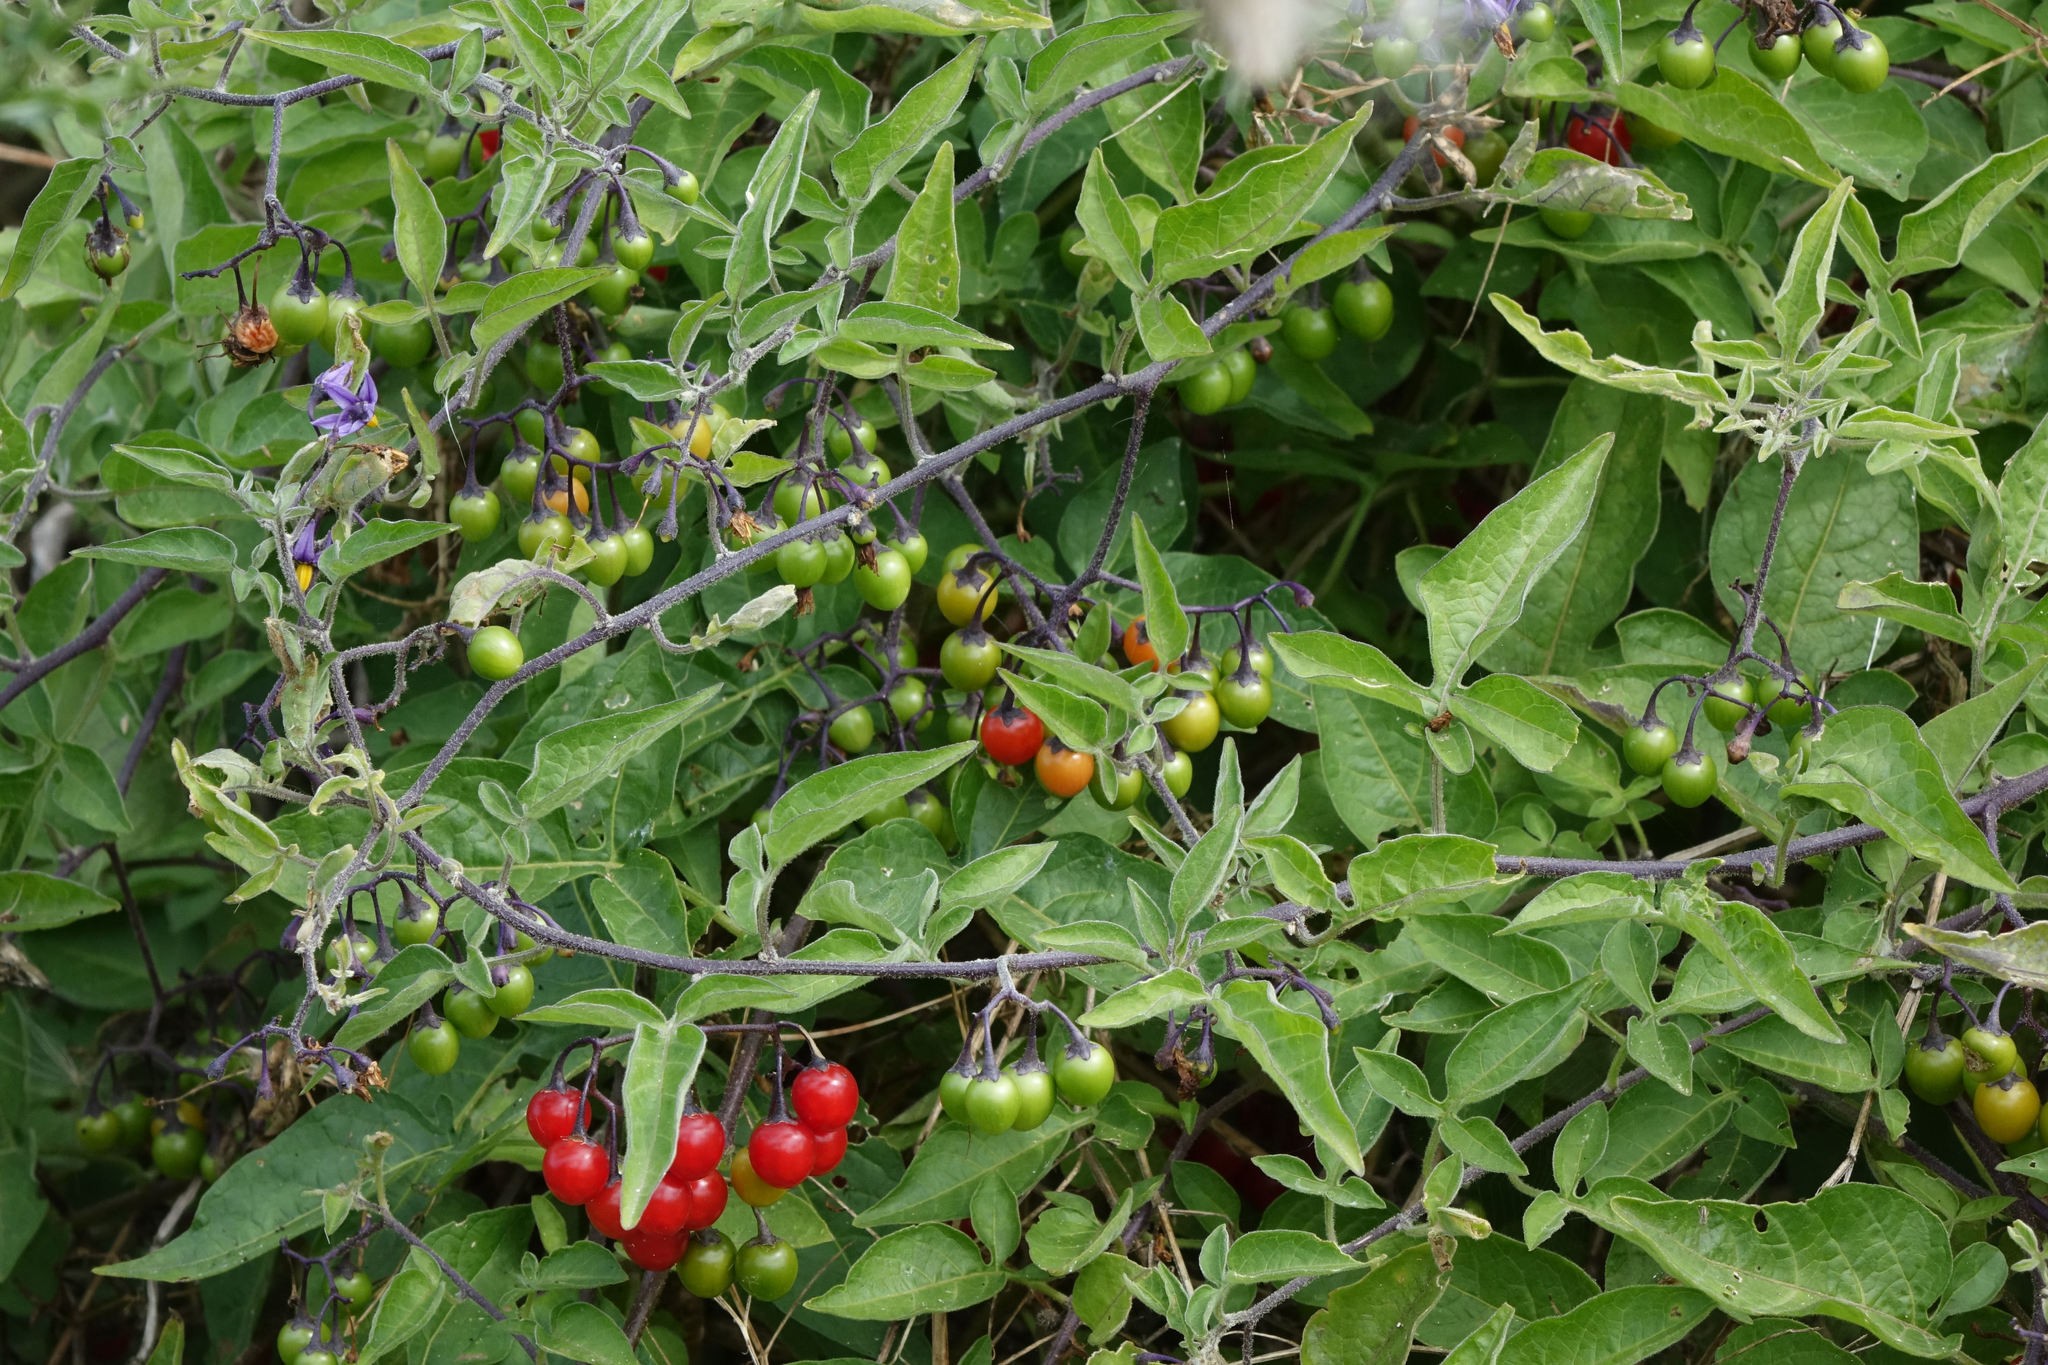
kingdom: Plantae
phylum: Tracheophyta
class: Magnoliopsida
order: Solanales
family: Solanaceae
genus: Solanum
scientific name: Solanum dulcamara
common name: Climbing nightshade
